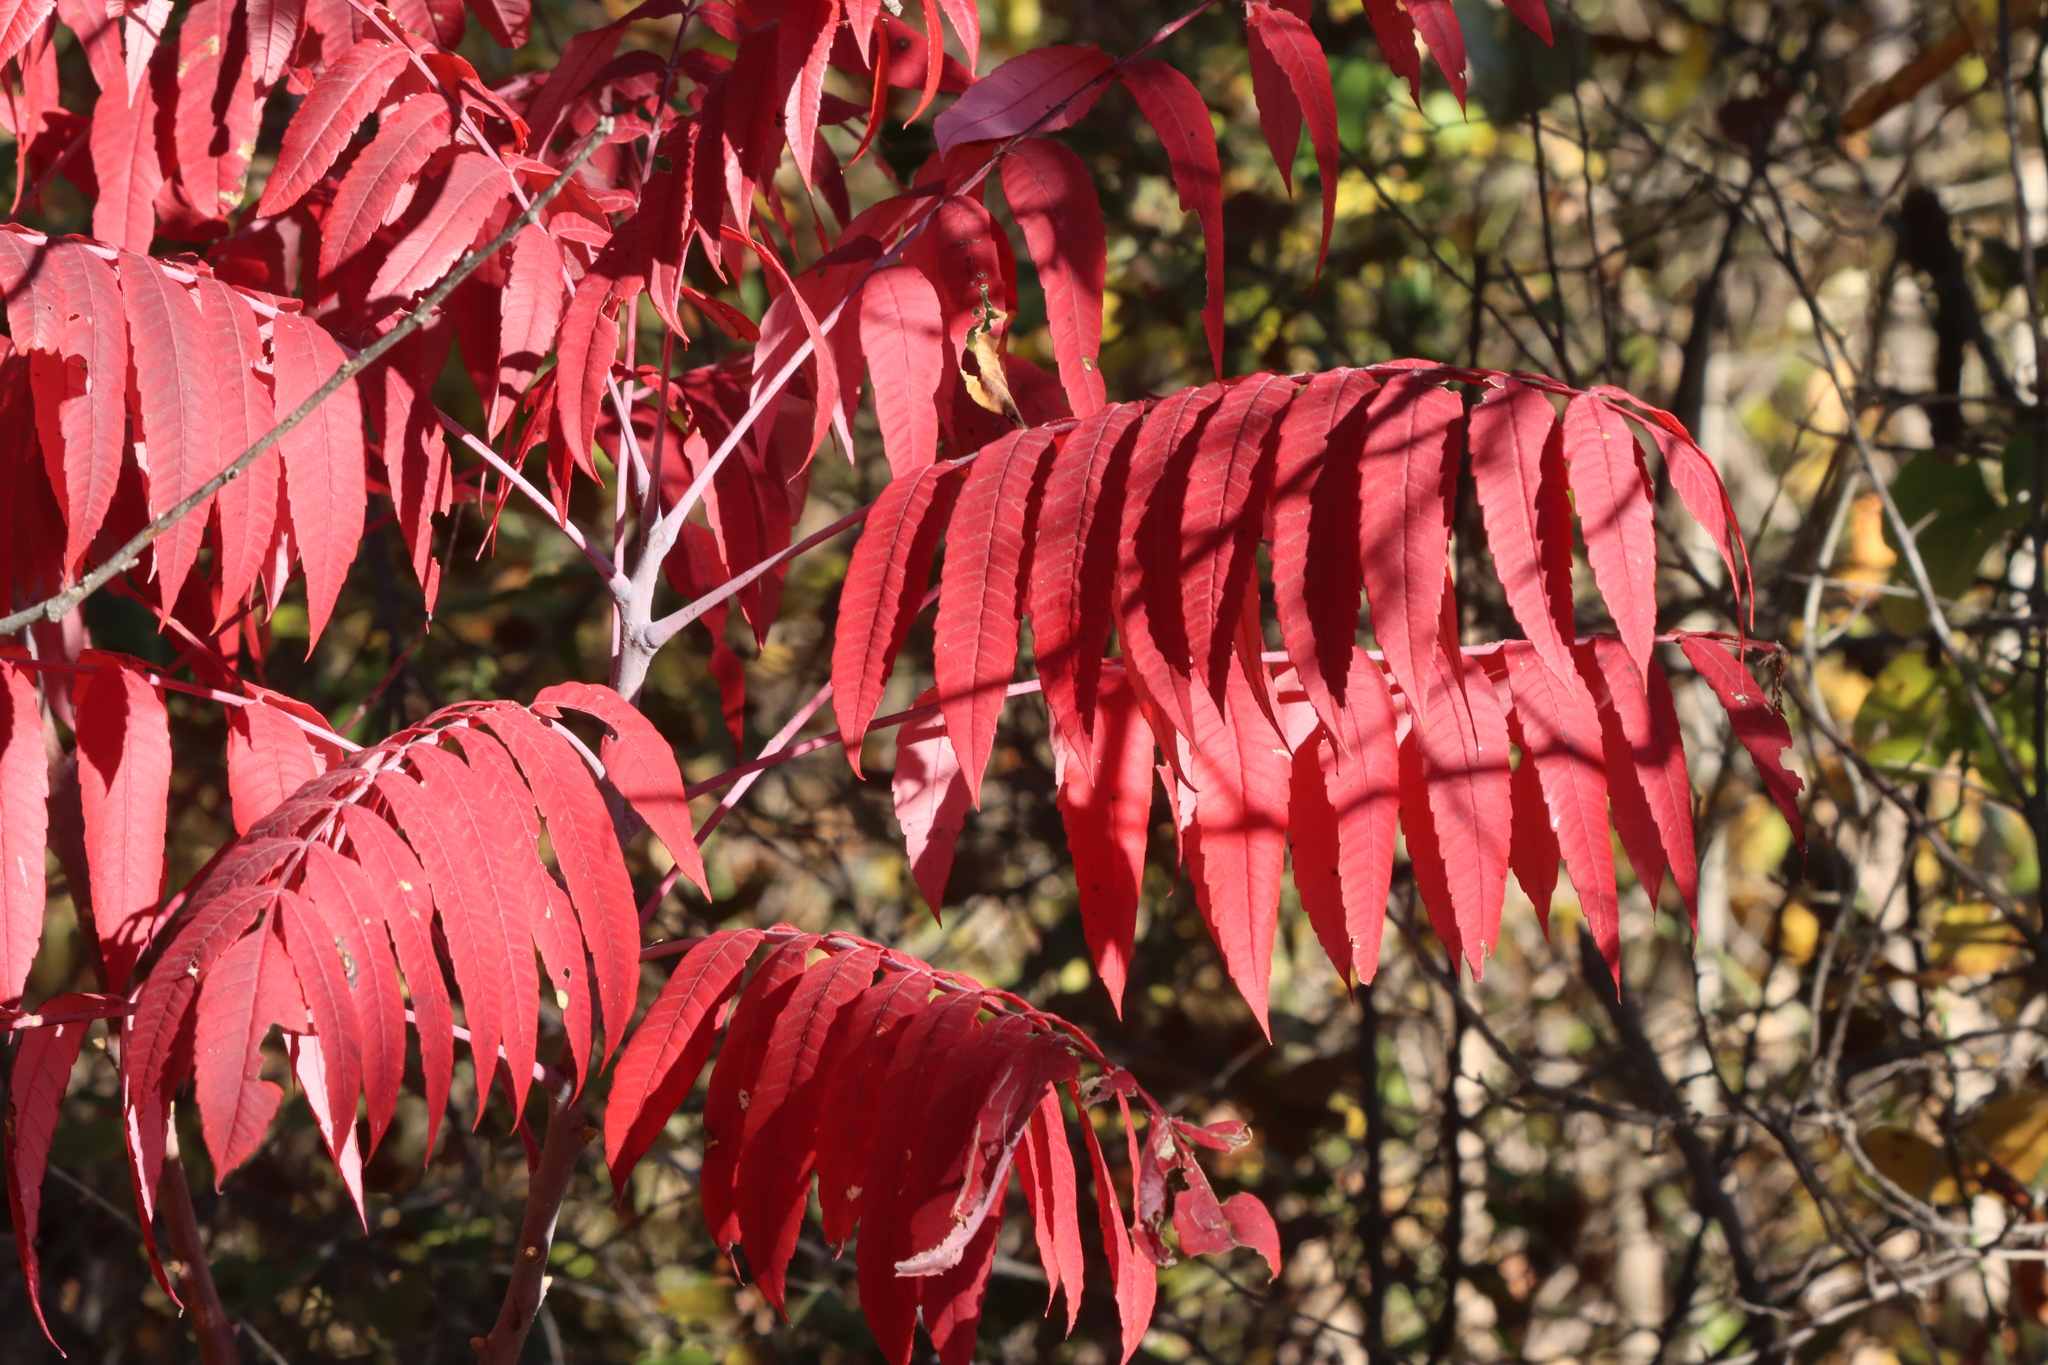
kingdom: Plantae
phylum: Tracheophyta
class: Magnoliopsida
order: Sapindales
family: Anacardiaceae
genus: Rhus
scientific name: Rhus glabra
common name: Scarlet sumac
